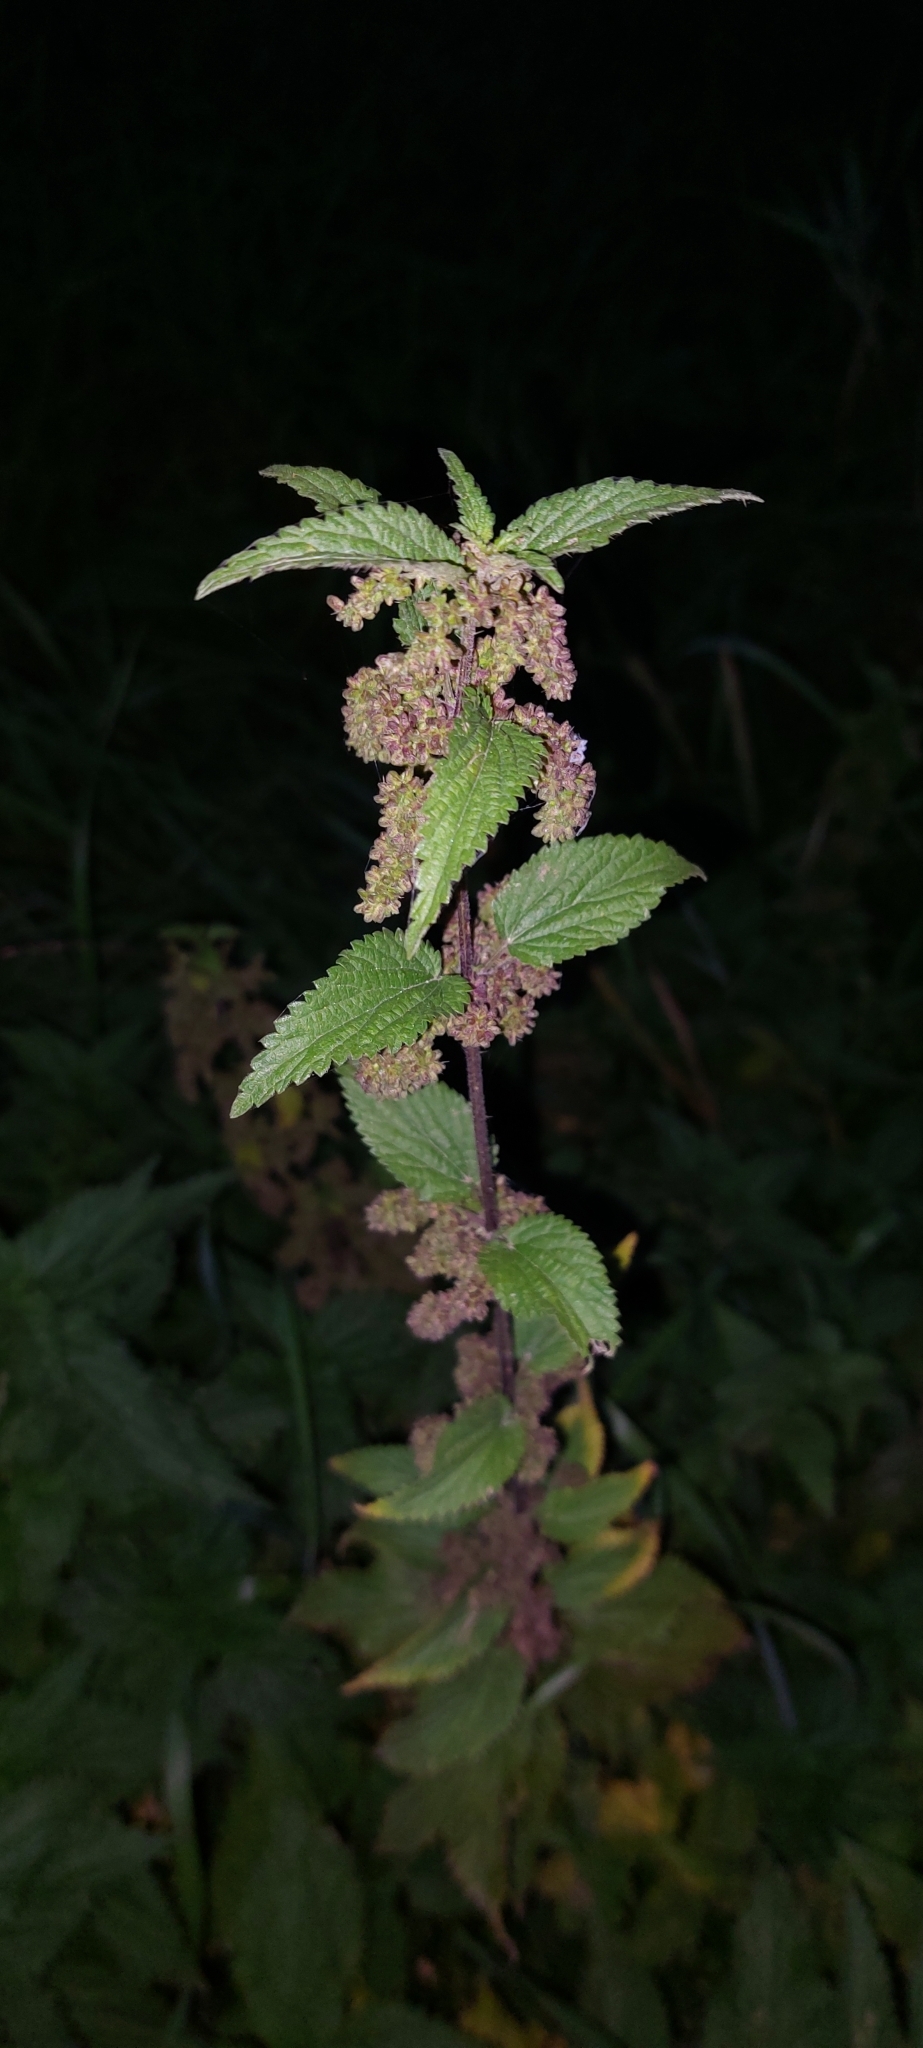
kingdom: Plantae
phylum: Tracheophyta
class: Magnoliopsida
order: Rosales
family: Urticaceae
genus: Urtica
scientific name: Urtica dioica
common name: Common nettle
